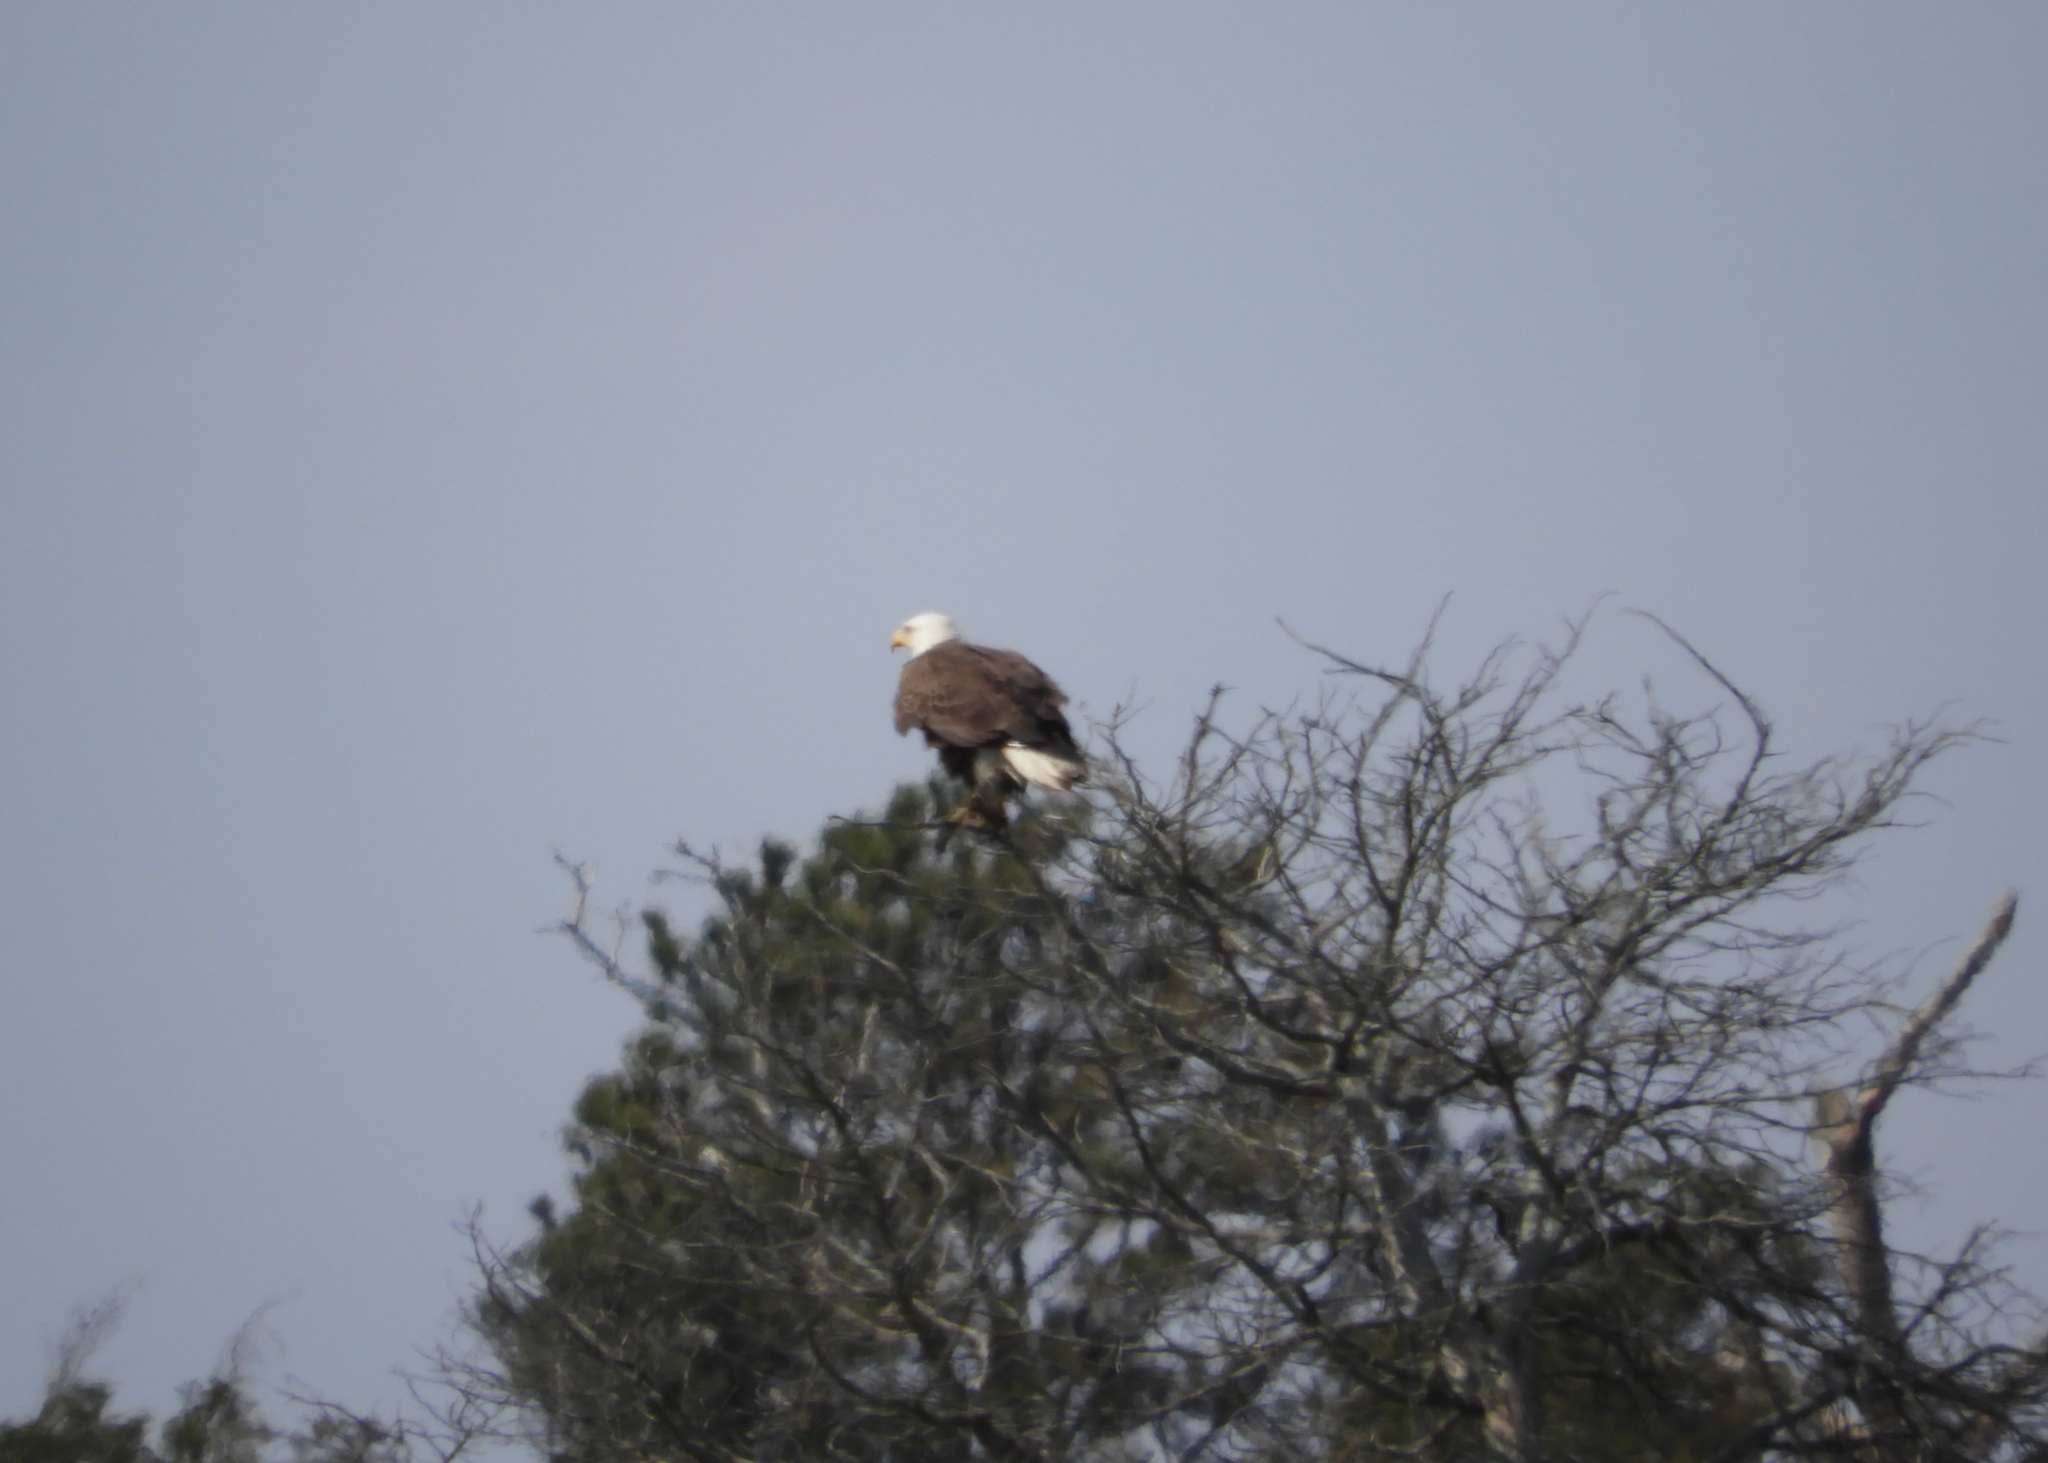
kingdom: Animalia
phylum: Chordata
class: Aves
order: Accipitriformes
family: Accipitridae
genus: Haliaeetus
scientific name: Haliaeetus leucocephalus
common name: Bald eagle
